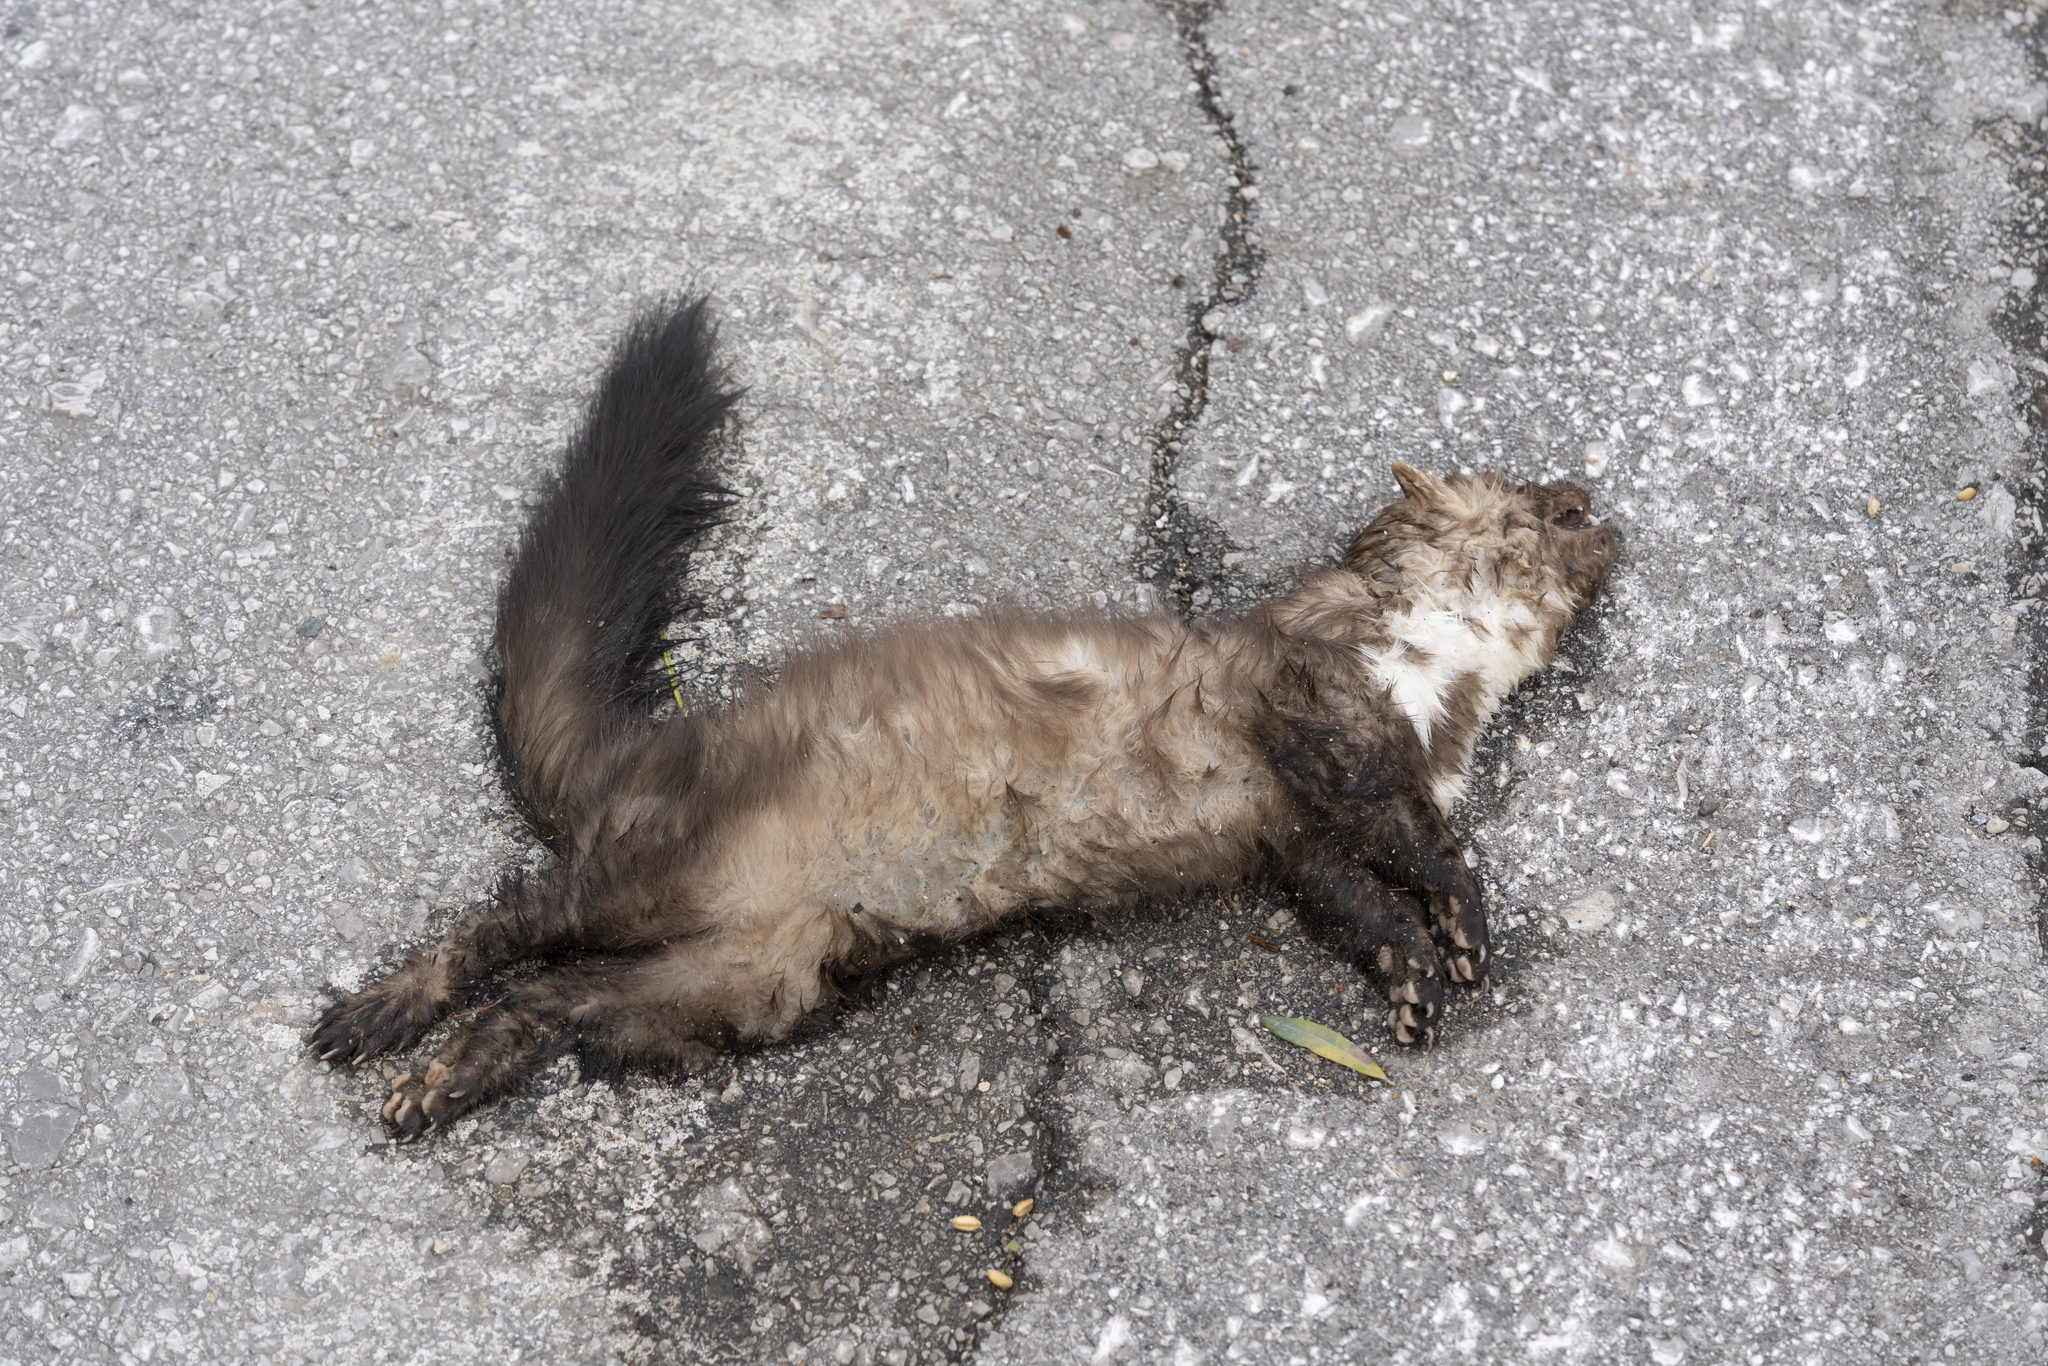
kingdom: Animalia
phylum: Chordata
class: Mammalia
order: Carnivora
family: Mustelidae
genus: Martes
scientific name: Martes foina
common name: Beech marten
